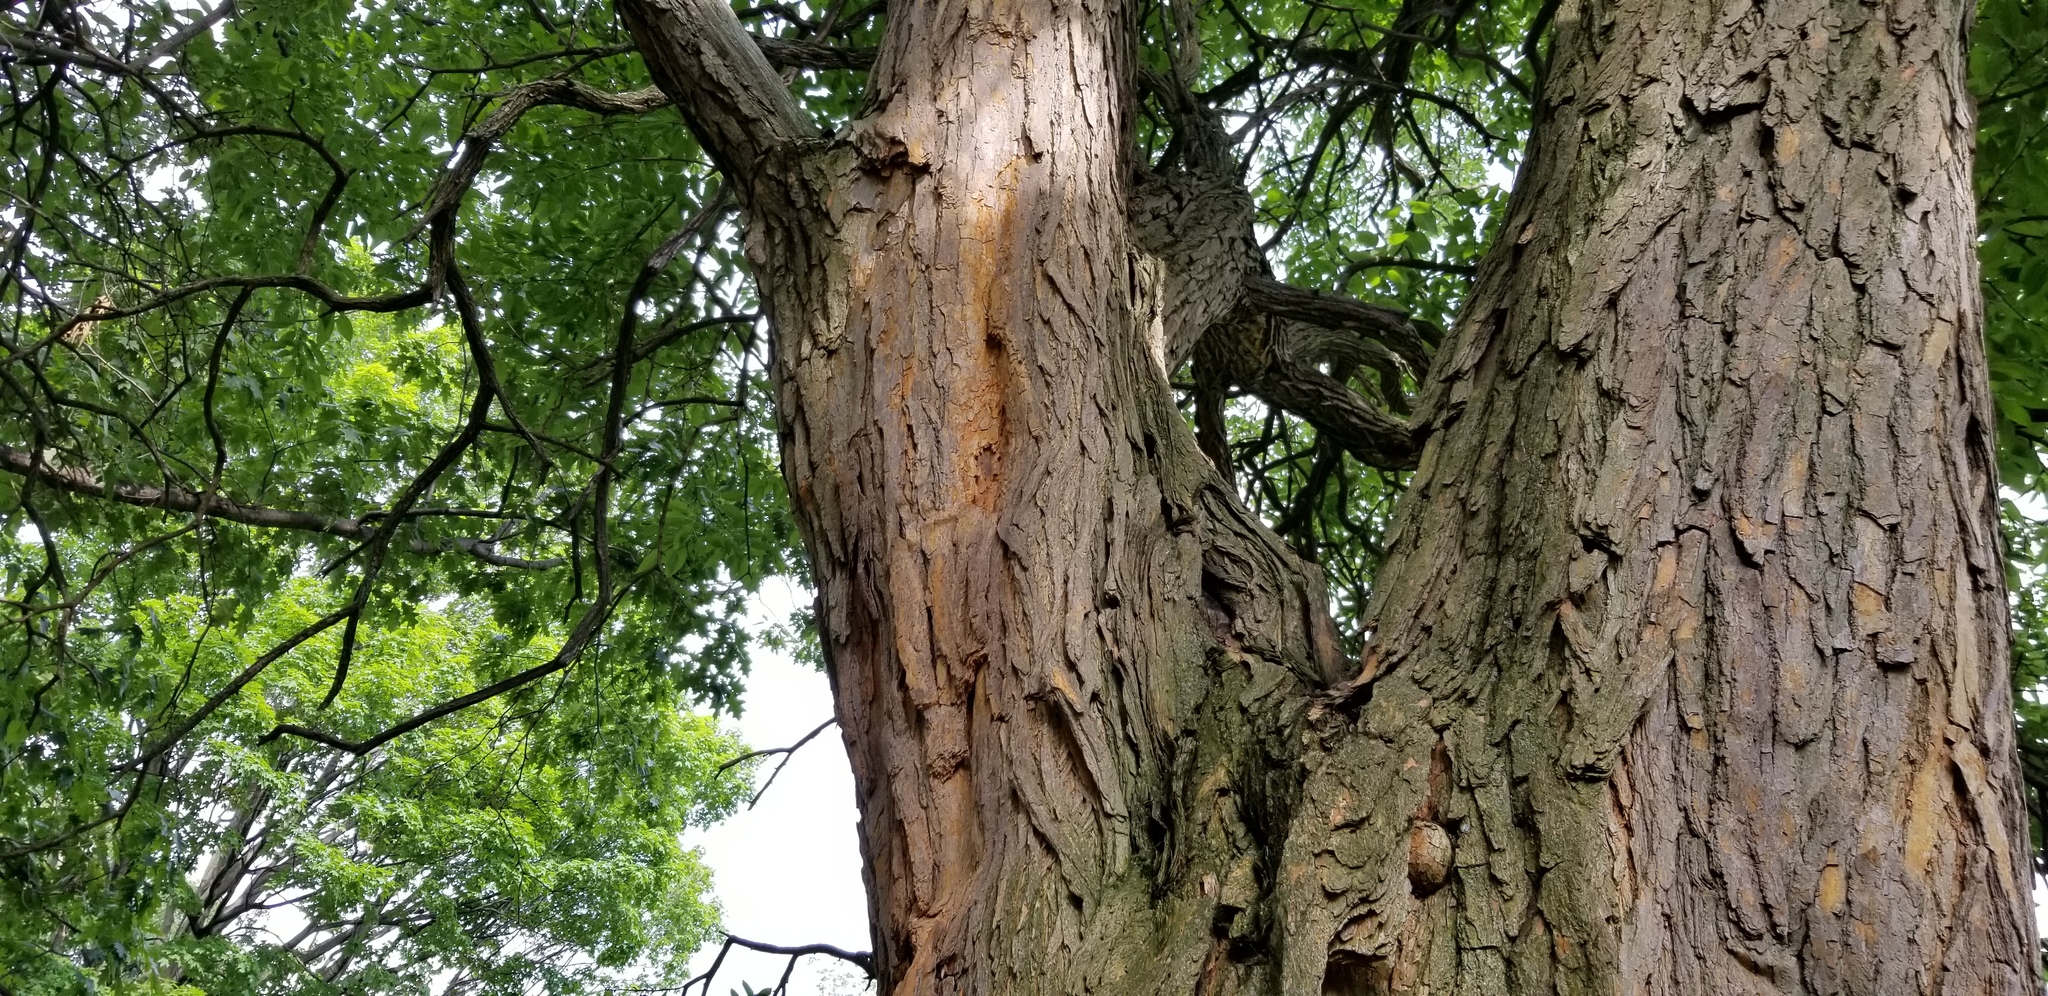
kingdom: Plantae
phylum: Tracheophyta
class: Magnoliopsida
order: Rosales
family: Moraceae
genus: Maclura
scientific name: Maclura pomifera
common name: Osage-orange
